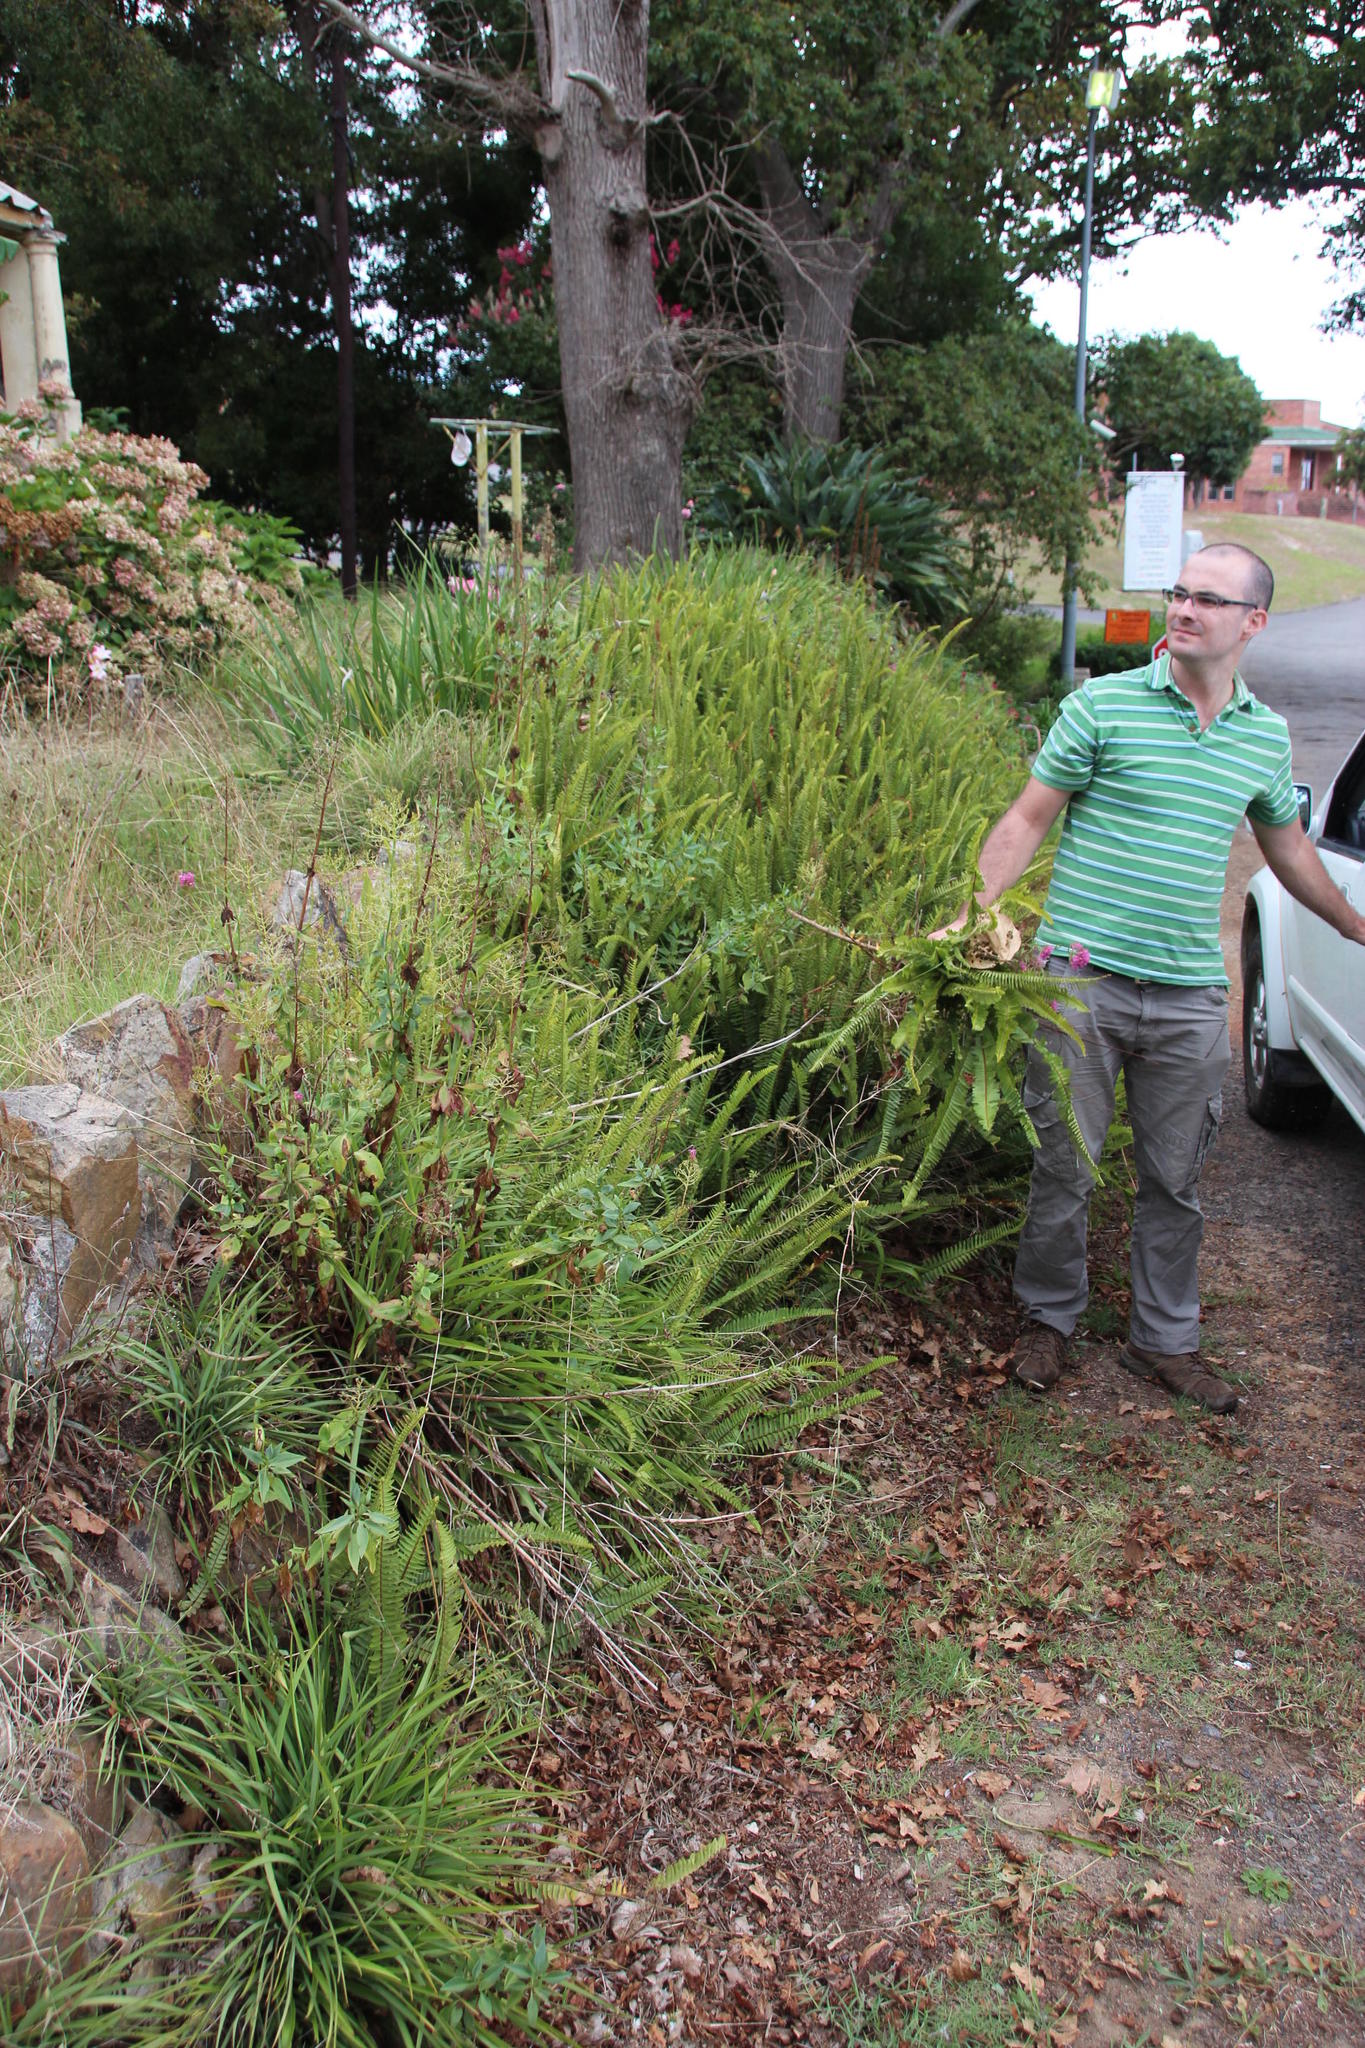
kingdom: Plantae
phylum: Tracheophyta
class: Polypodiopsida
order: Polypodiales
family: Nephrolepidaceae
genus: Nephrolepis
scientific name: Nephrolepis cordifolia
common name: Narrow swordfern
